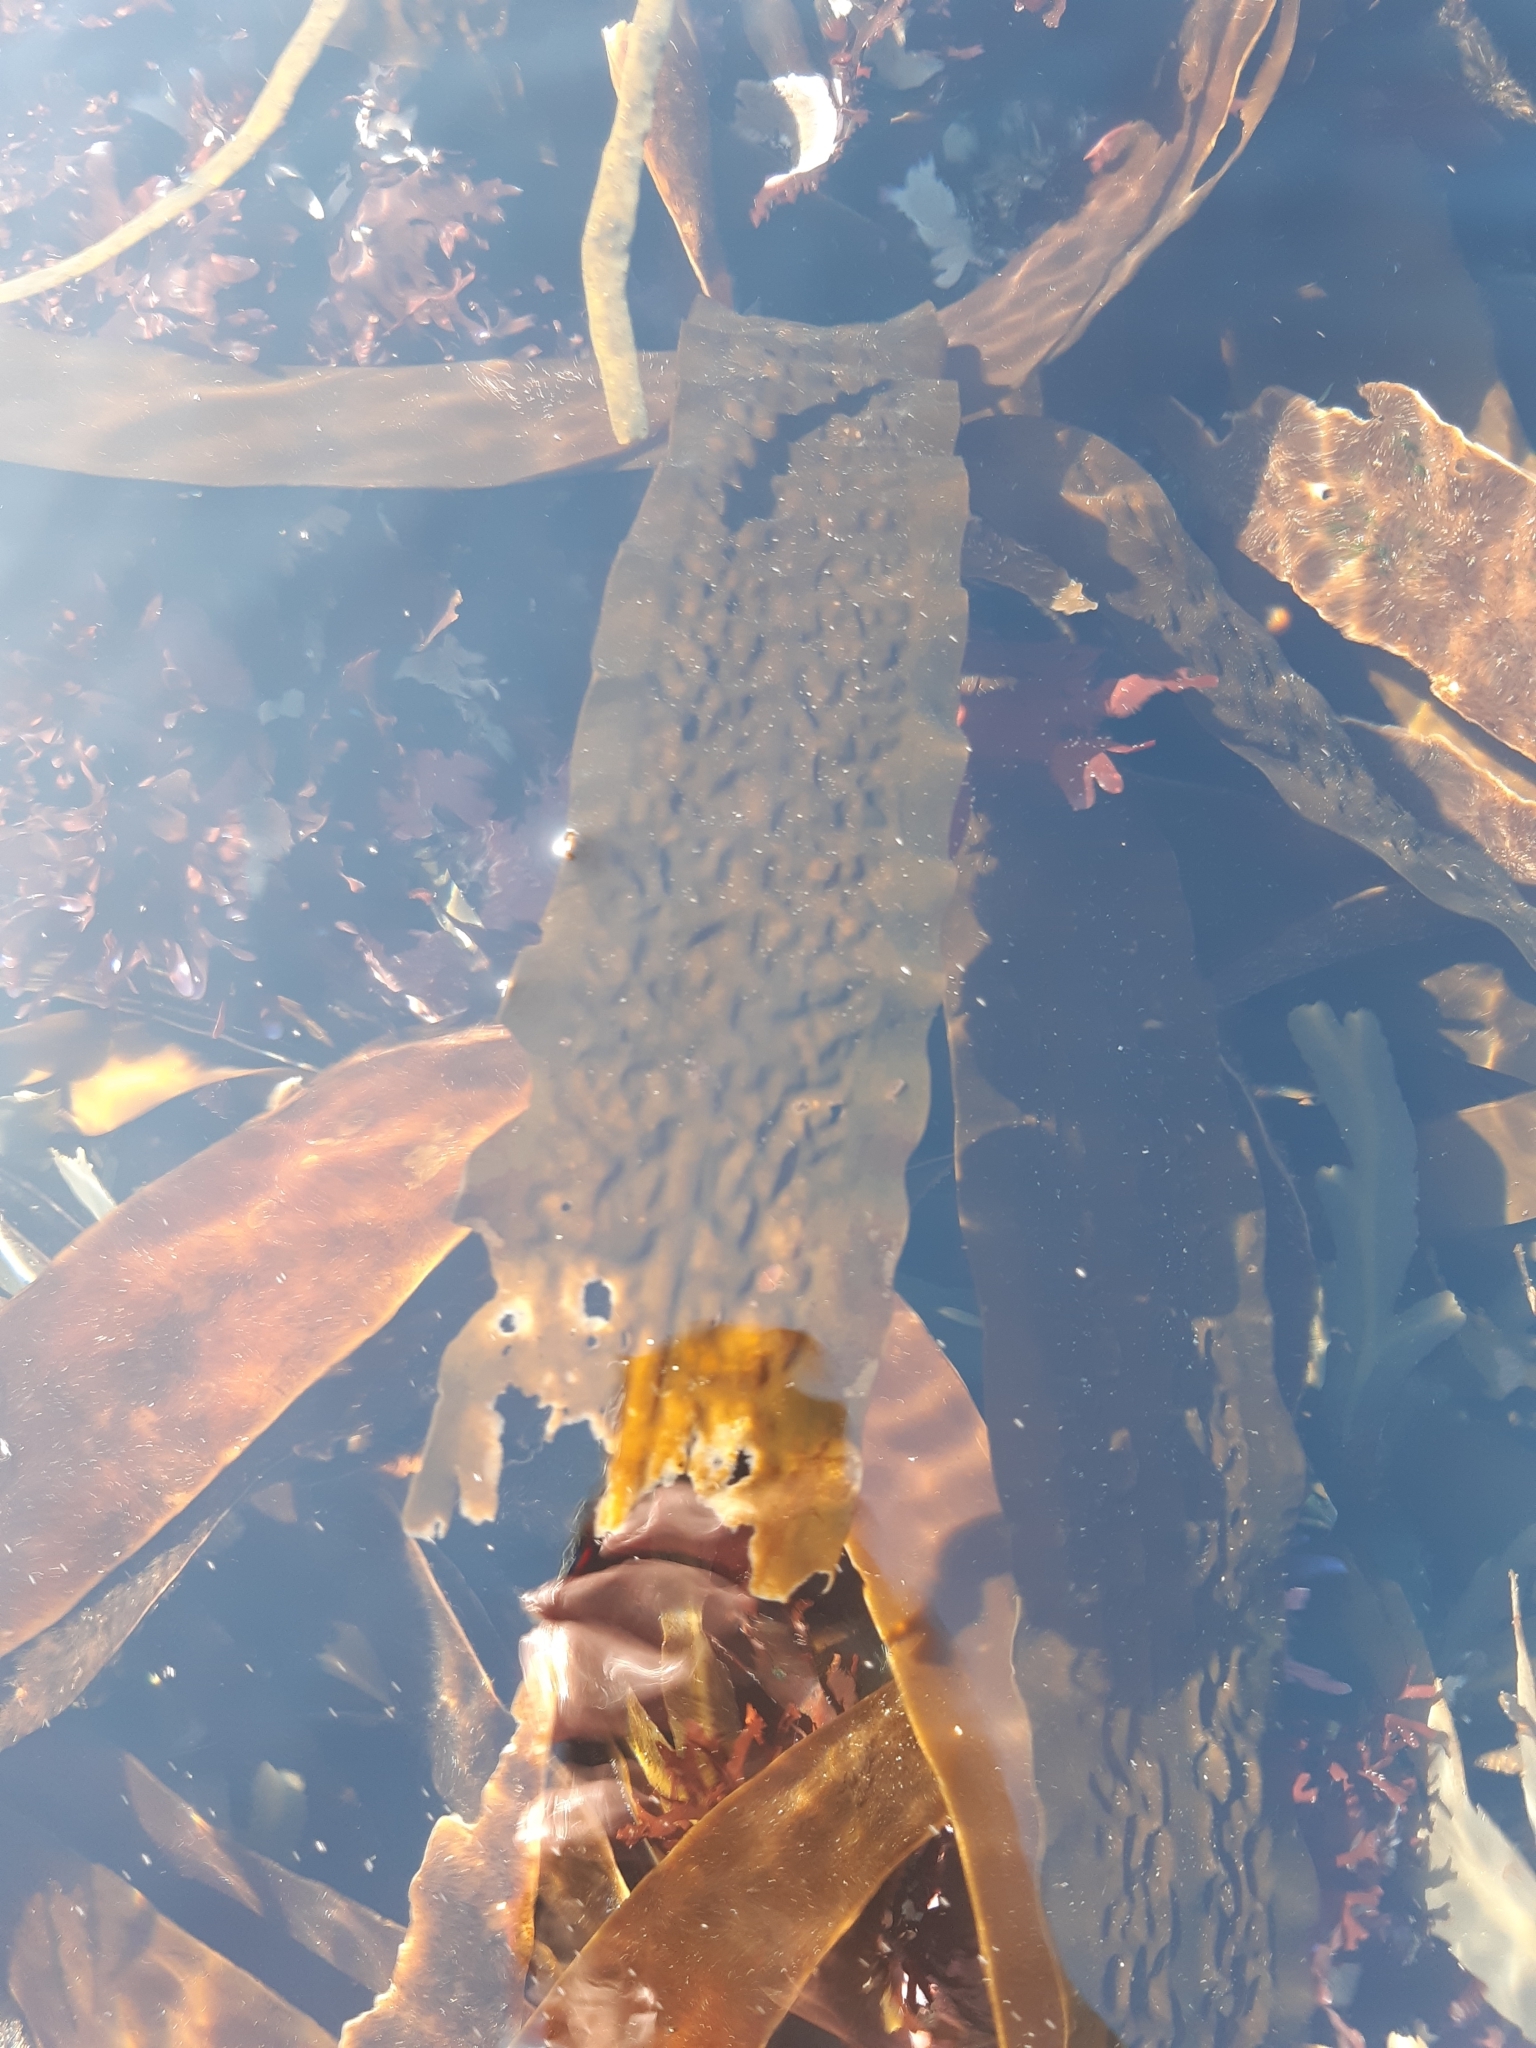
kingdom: Chromista
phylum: Ochrophyta
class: Phaeophyceae
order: Laminariales
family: Laminariaceae
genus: Saccharina
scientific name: Saccharina latissima
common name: Poor man's weather glass
